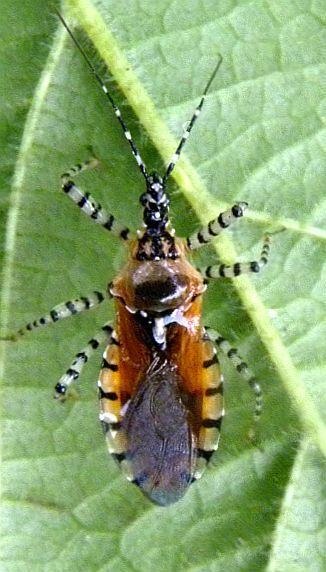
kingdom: Animalia
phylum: Arthropoda
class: Insecta
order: Hemiptera
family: Reduviidae
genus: Pselliopus
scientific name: Pselliopus cinctus
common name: Ringed assassin bug
